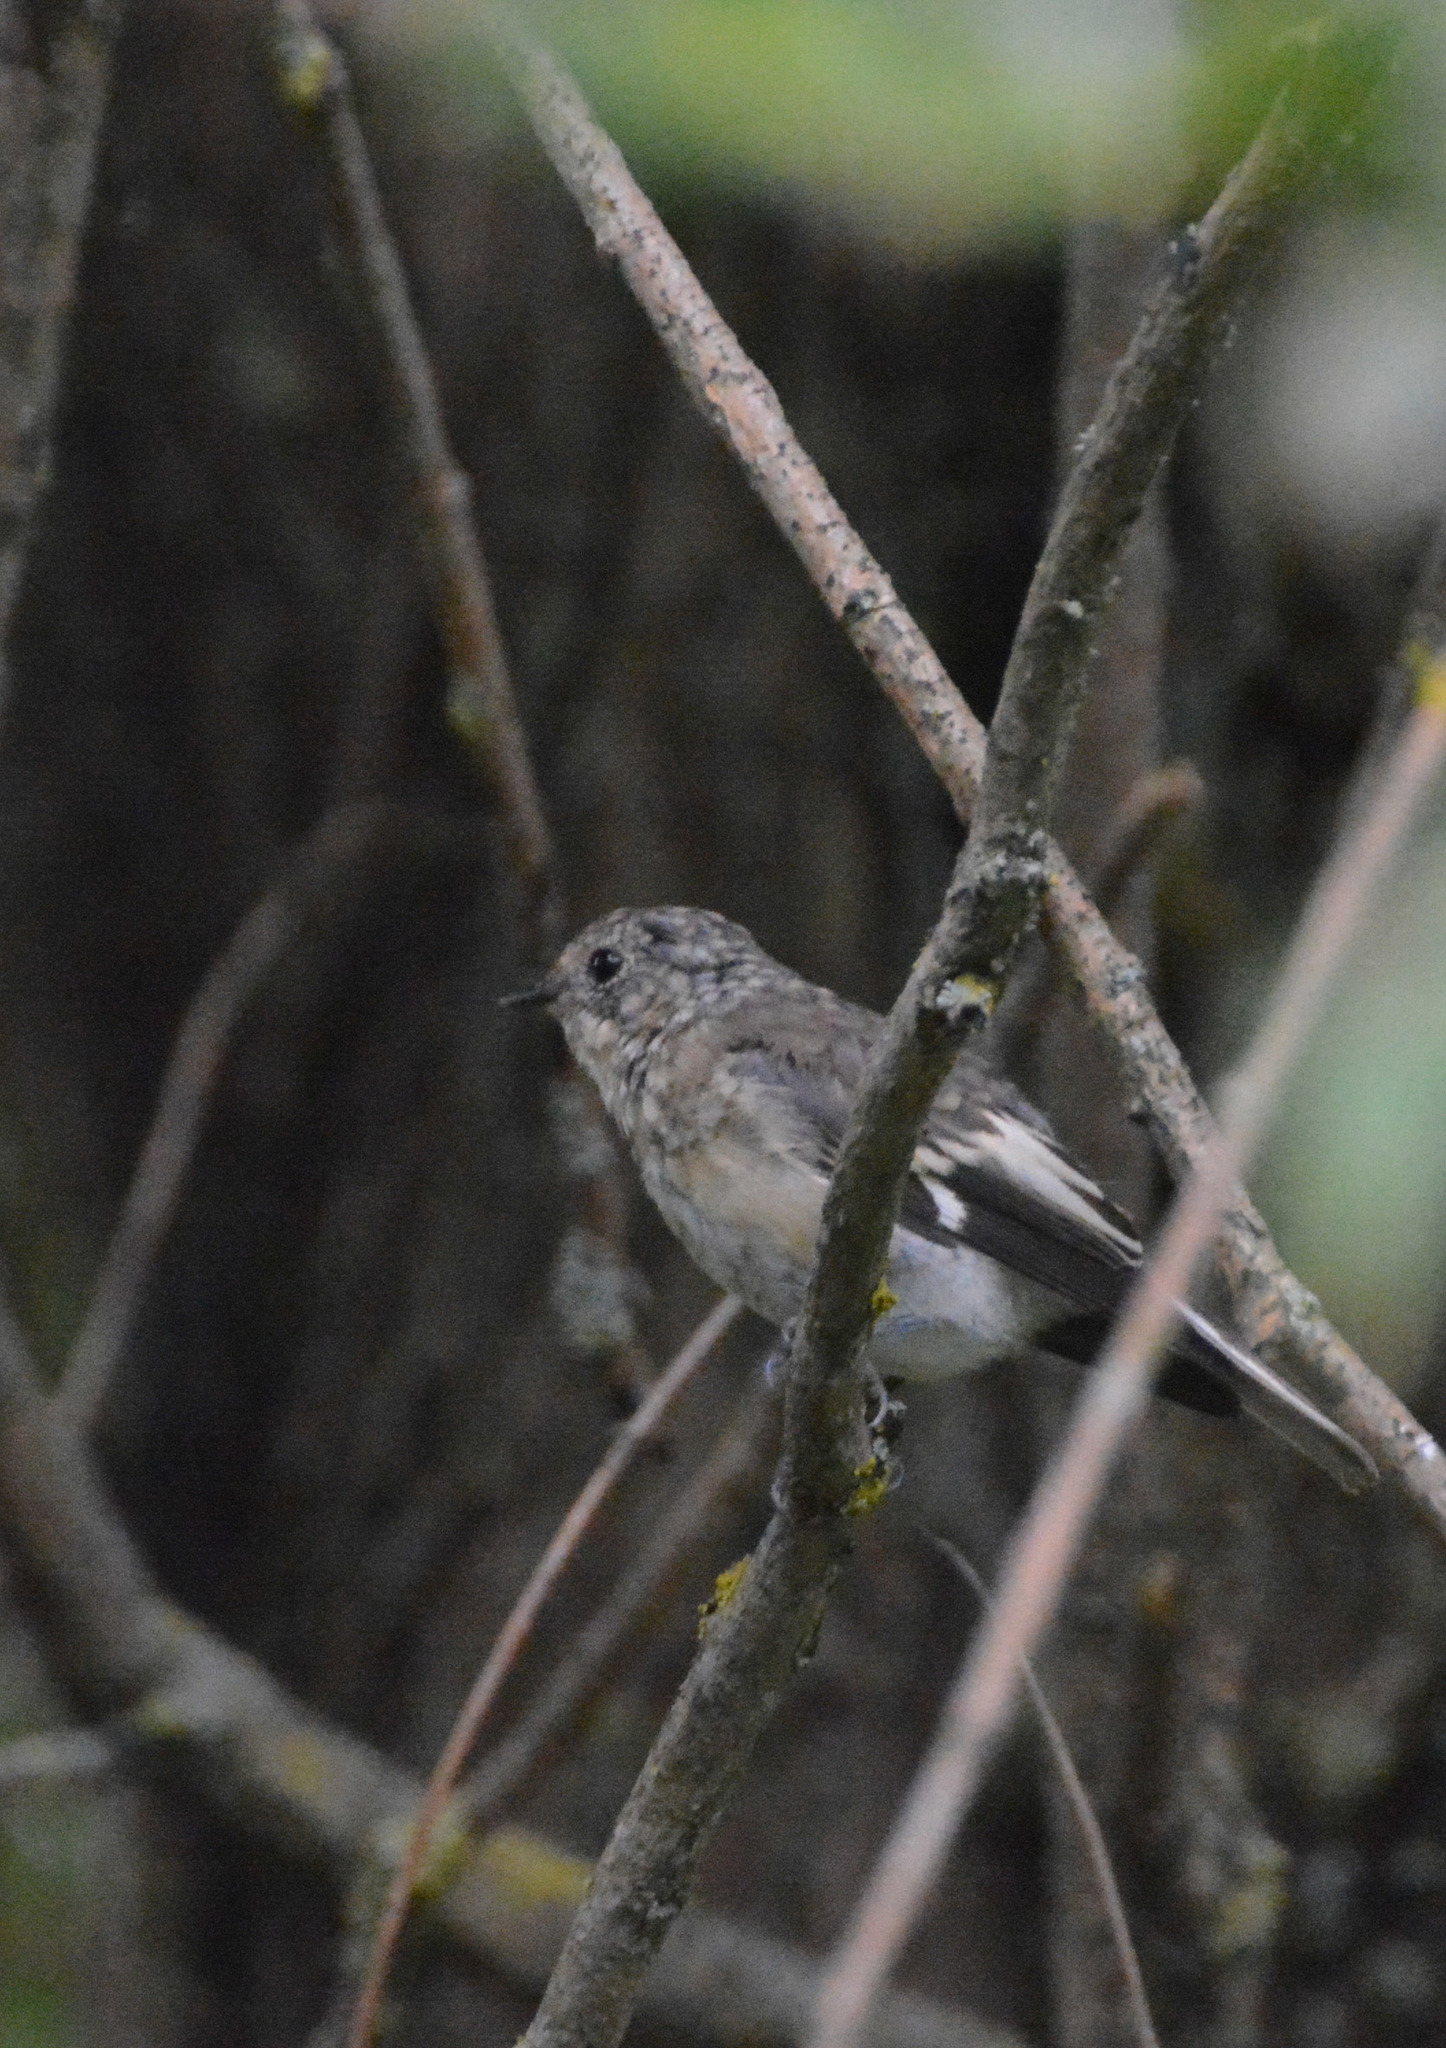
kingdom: Animalia
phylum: Chordata
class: Aves
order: Passeriformes
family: Muscicapidae
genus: Ficedula
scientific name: Ficedula hypoleuca
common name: European pied flycatcher
